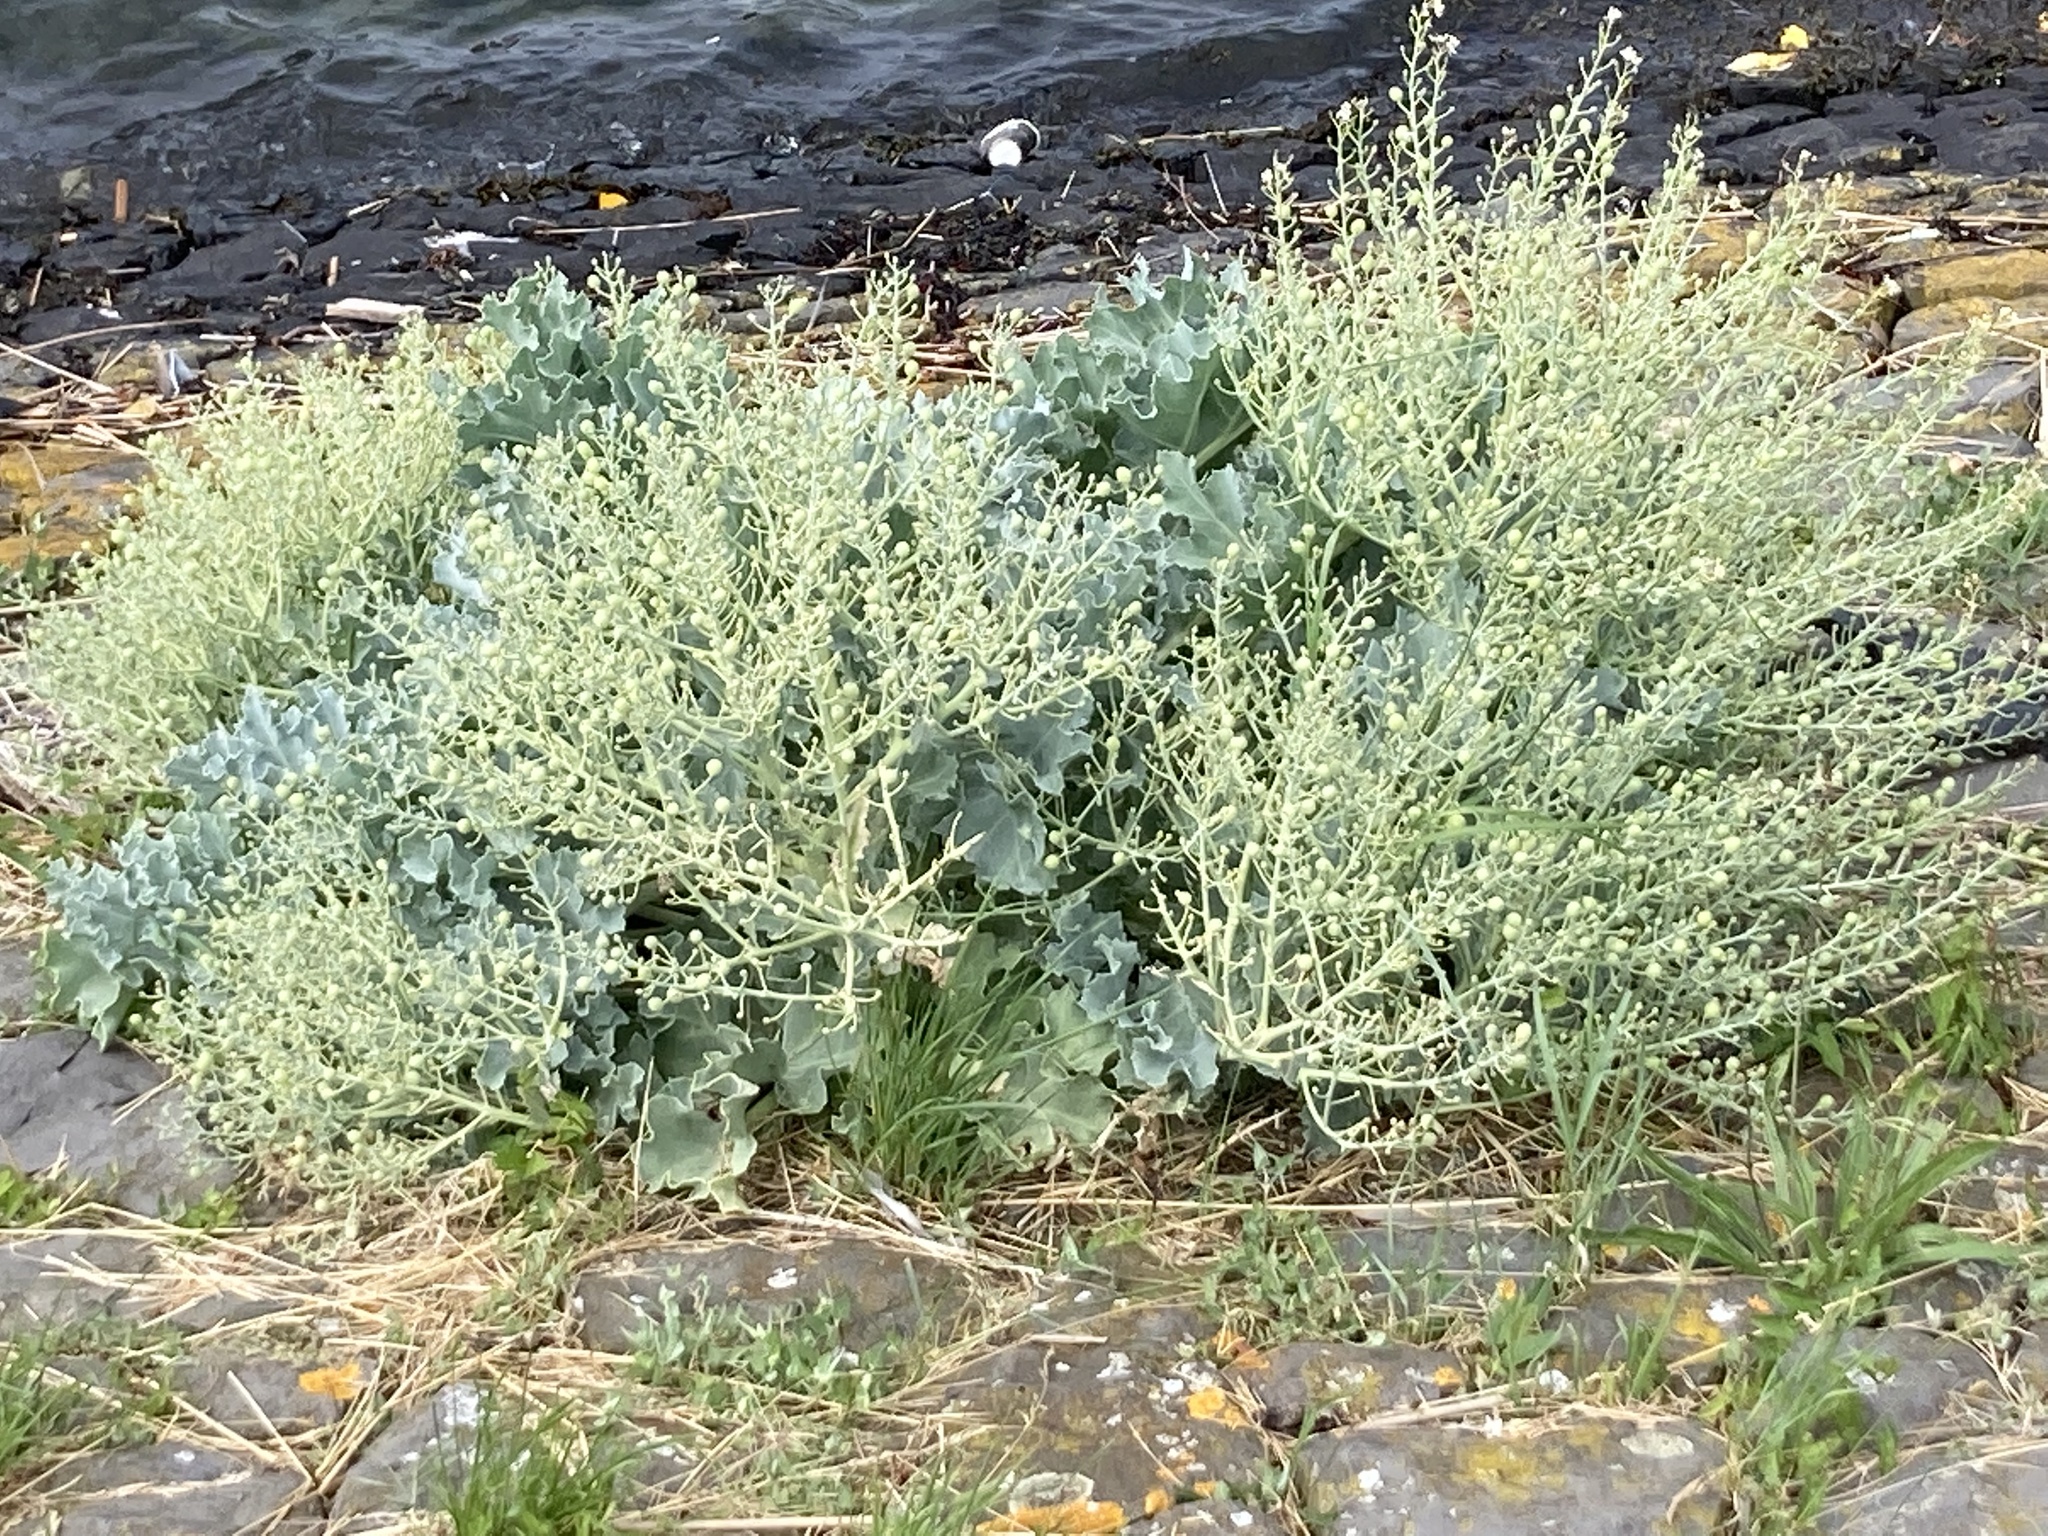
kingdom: Plantae
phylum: Tracheophyta
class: Magnoliopsida
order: Brassicales
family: Brassicaceae
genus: Crambe
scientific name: Crambe maritima
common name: Sea-kale
